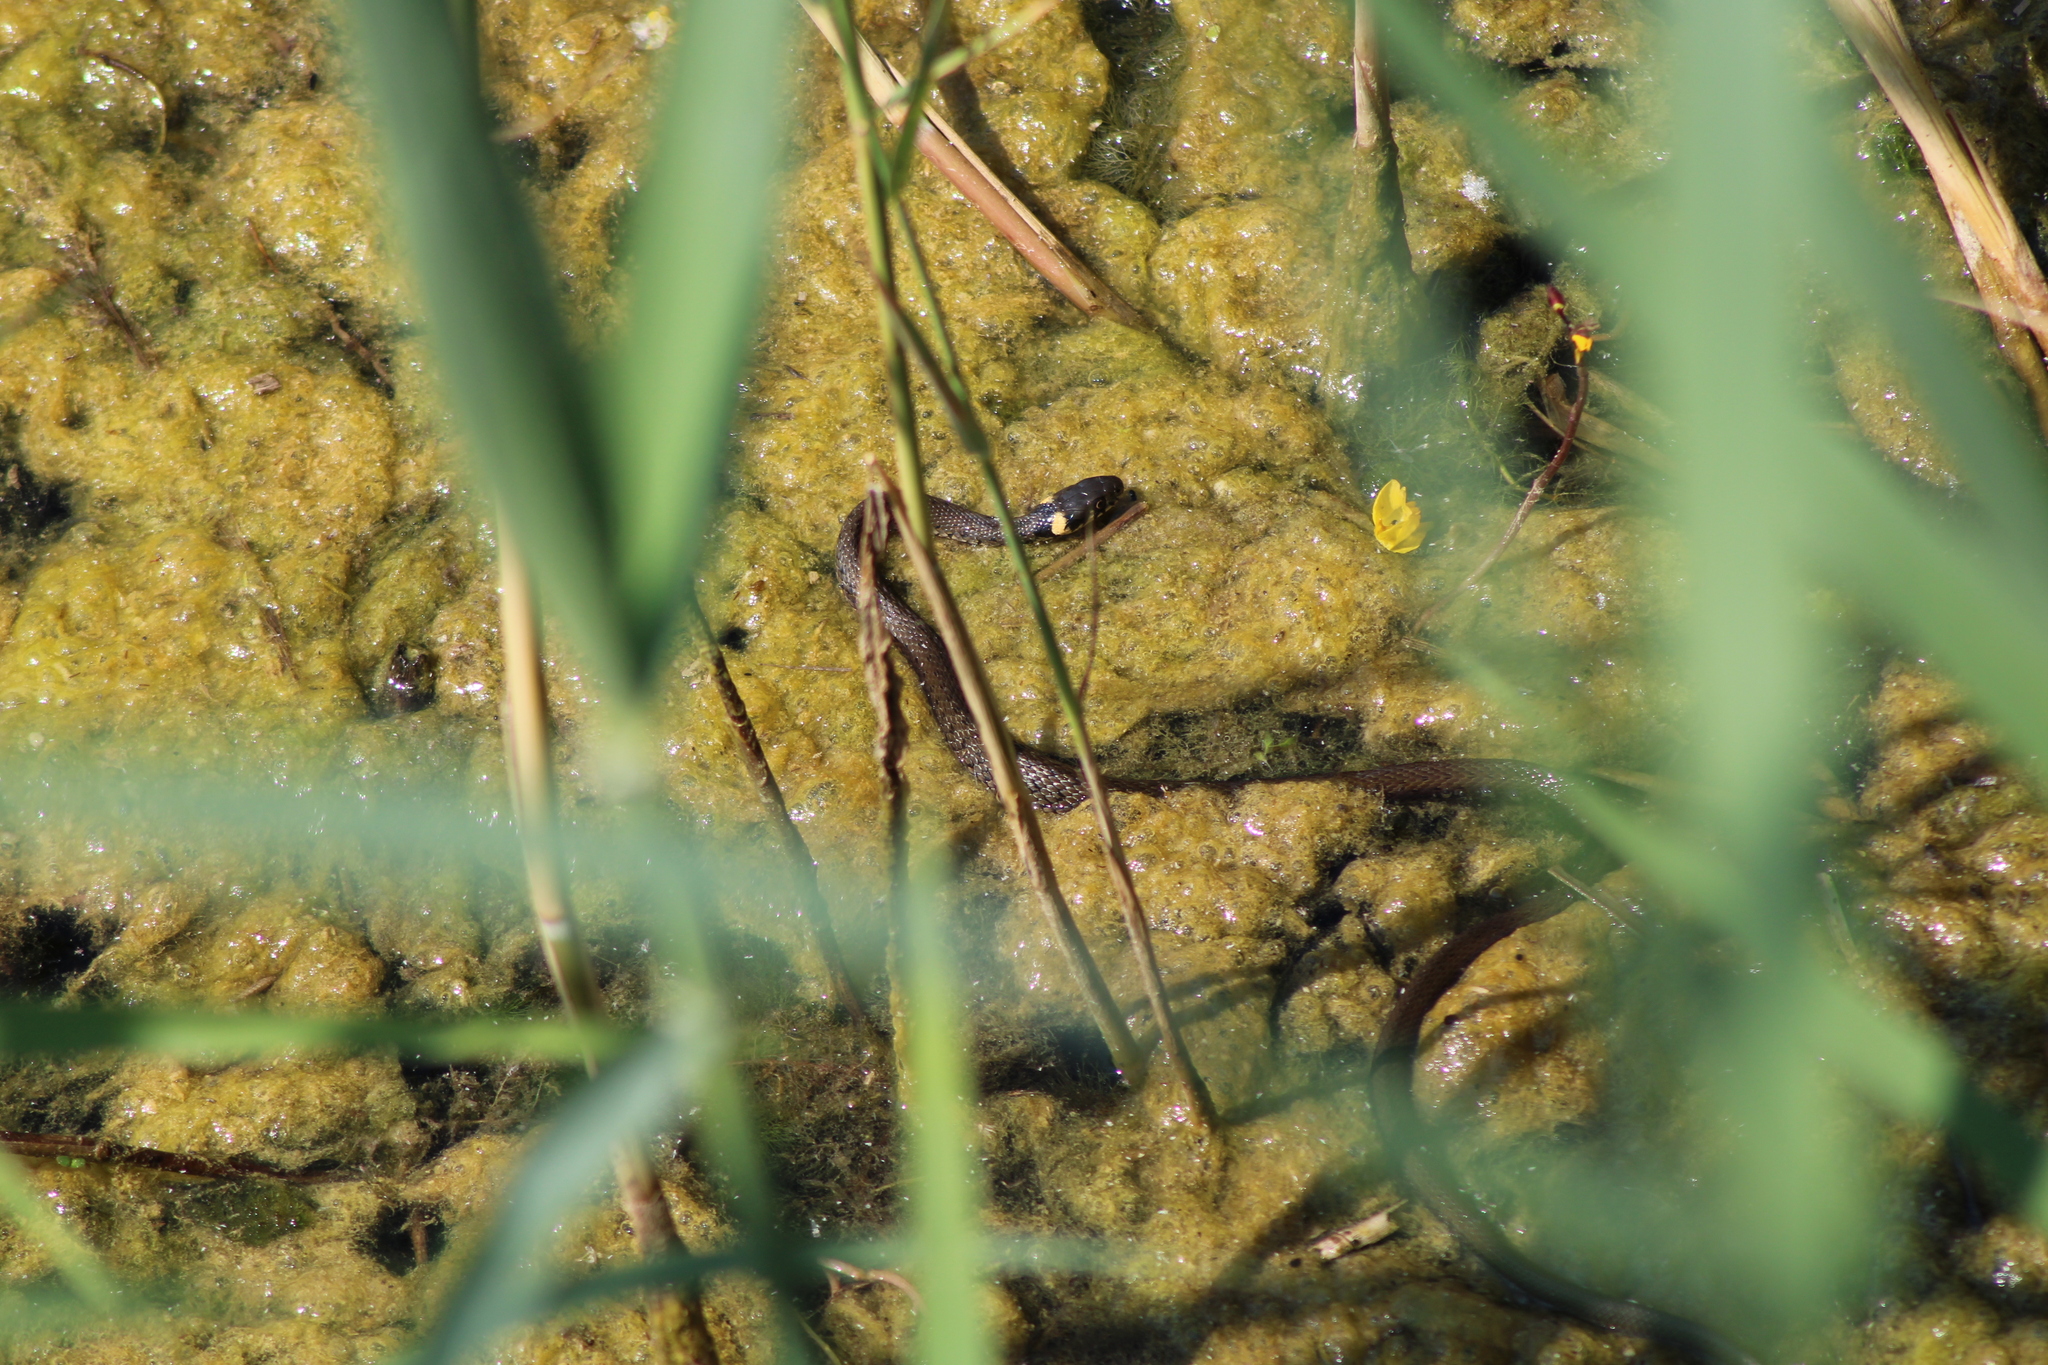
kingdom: Animalia
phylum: Chordata
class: Squamata
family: Colubridae
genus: Natrix
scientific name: Natrix natrix
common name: Grass snake
